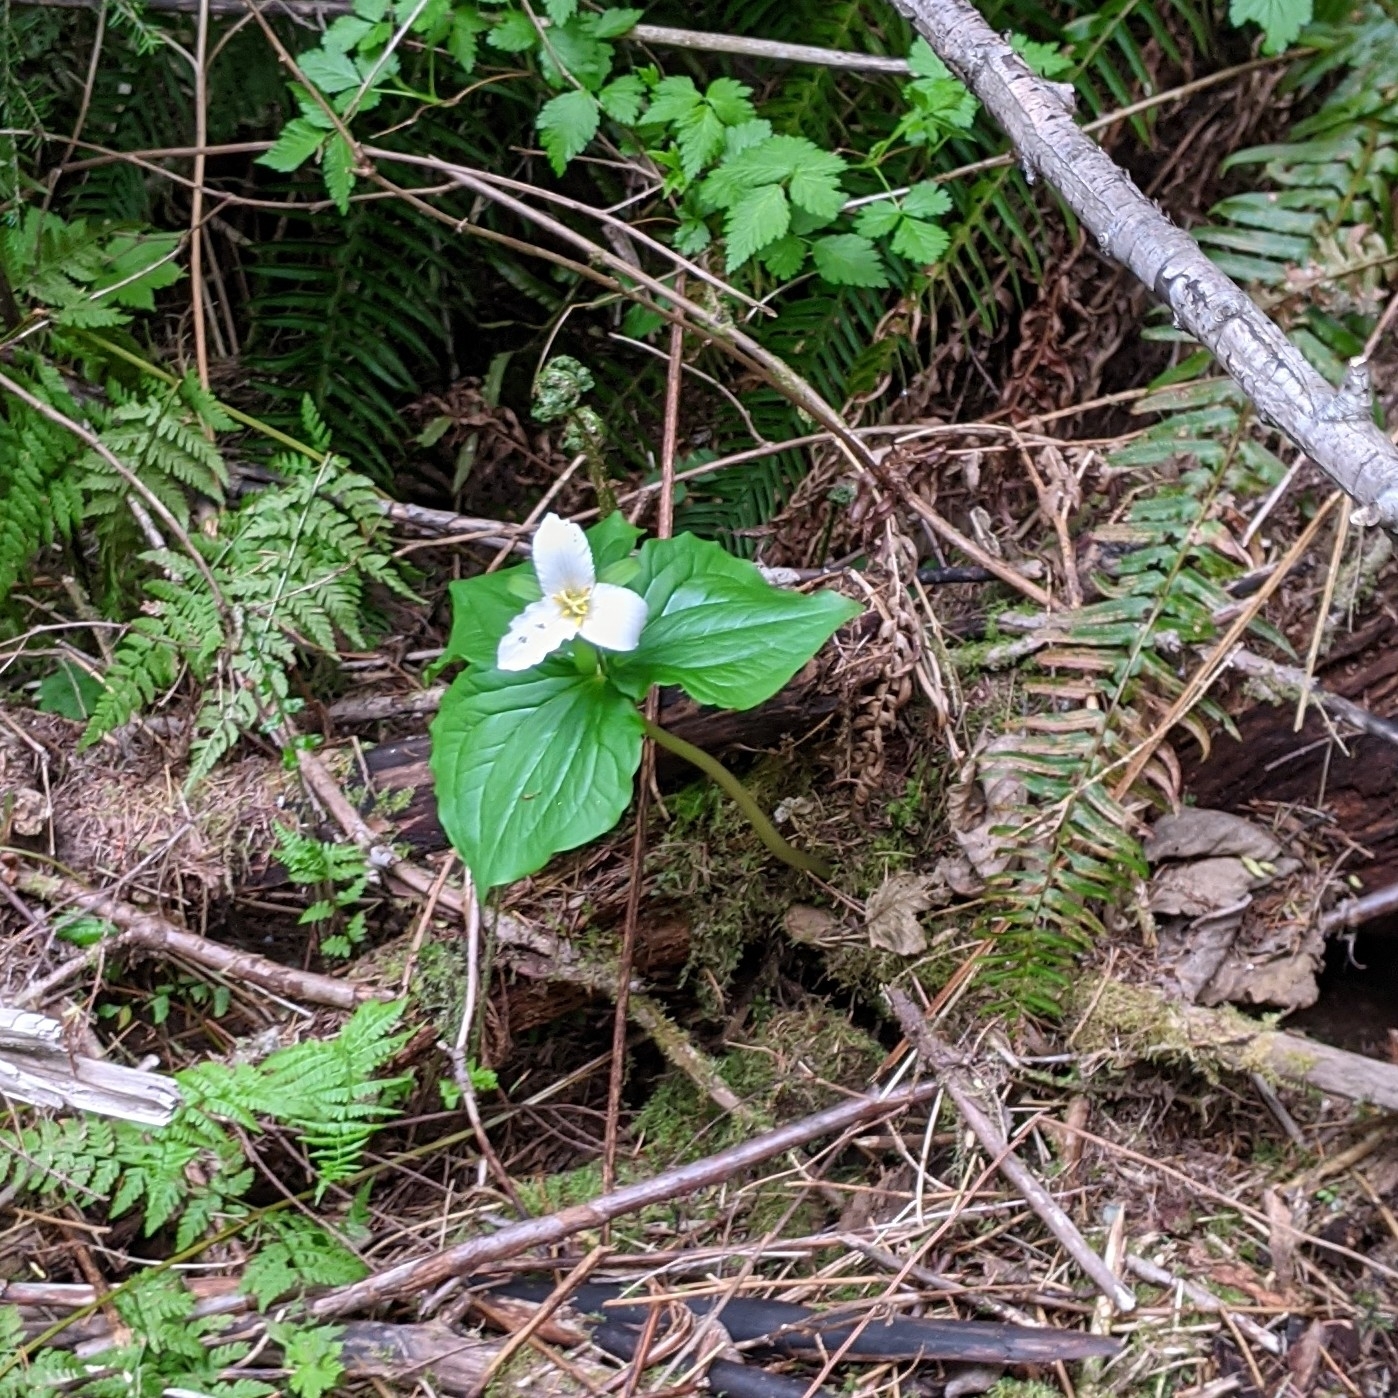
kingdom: Plantae
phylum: Tracheophyta
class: Liliopsida
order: Liliales
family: Melanthiaceae
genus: Trillium
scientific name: Trillium ovatum
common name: Pacific trillium
